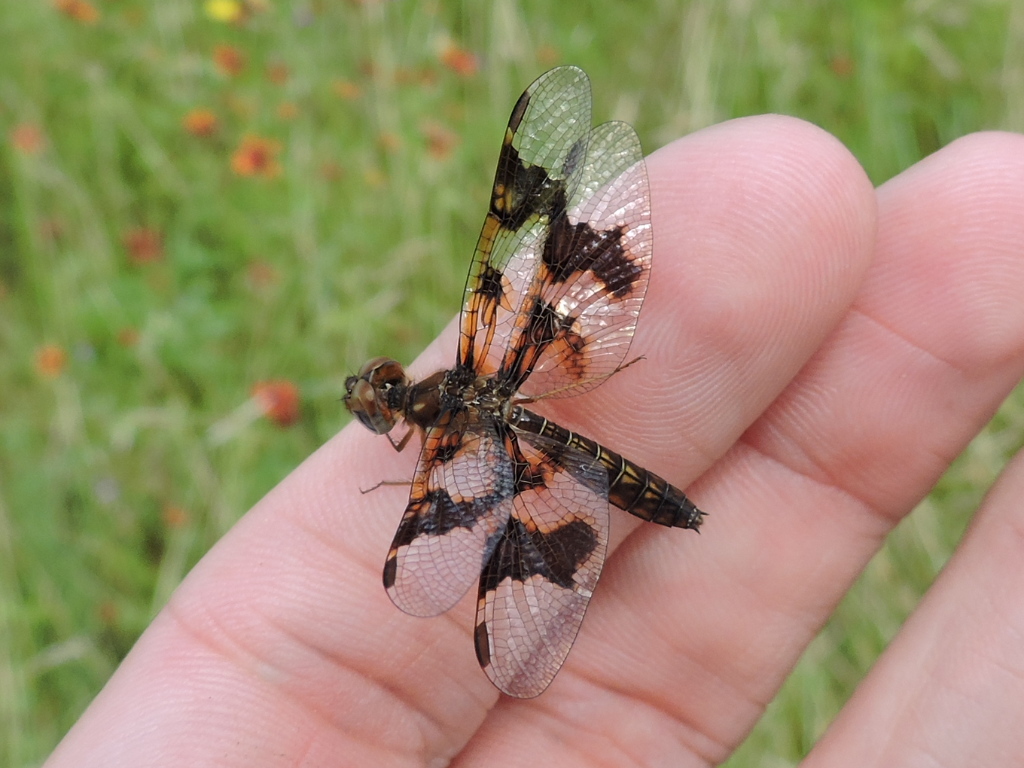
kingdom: Animalia
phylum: Arthropoda
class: Insecta
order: Odonata
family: Libellulidae
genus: Perithemis
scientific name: Perithemis tenera
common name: Eastern amberwing
